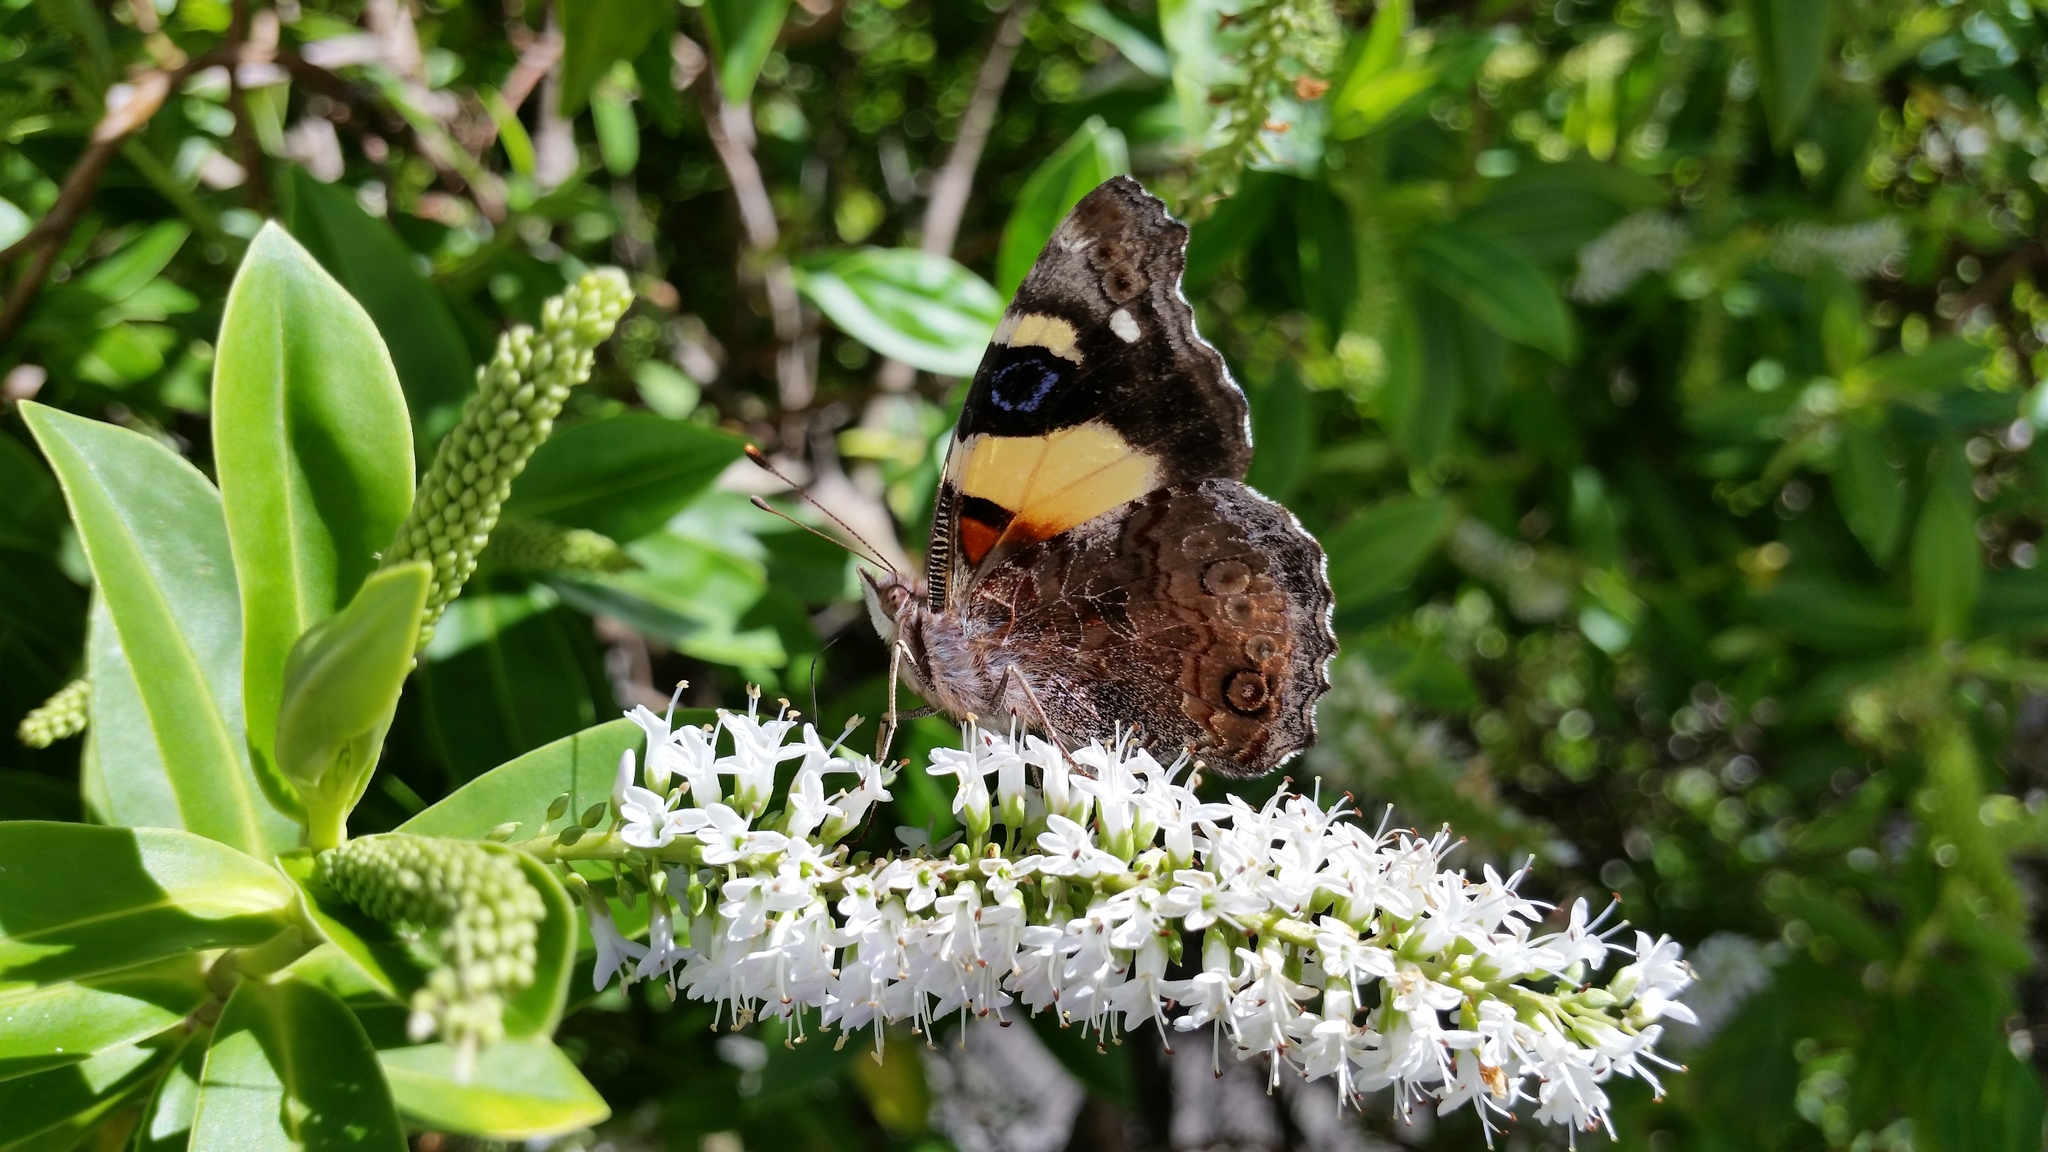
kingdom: Animalia
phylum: Arthropoda
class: Insecta
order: Lepidoptera
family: Nymphalidae
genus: Vanessa
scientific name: Vanessa itea
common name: Yellow admiral
